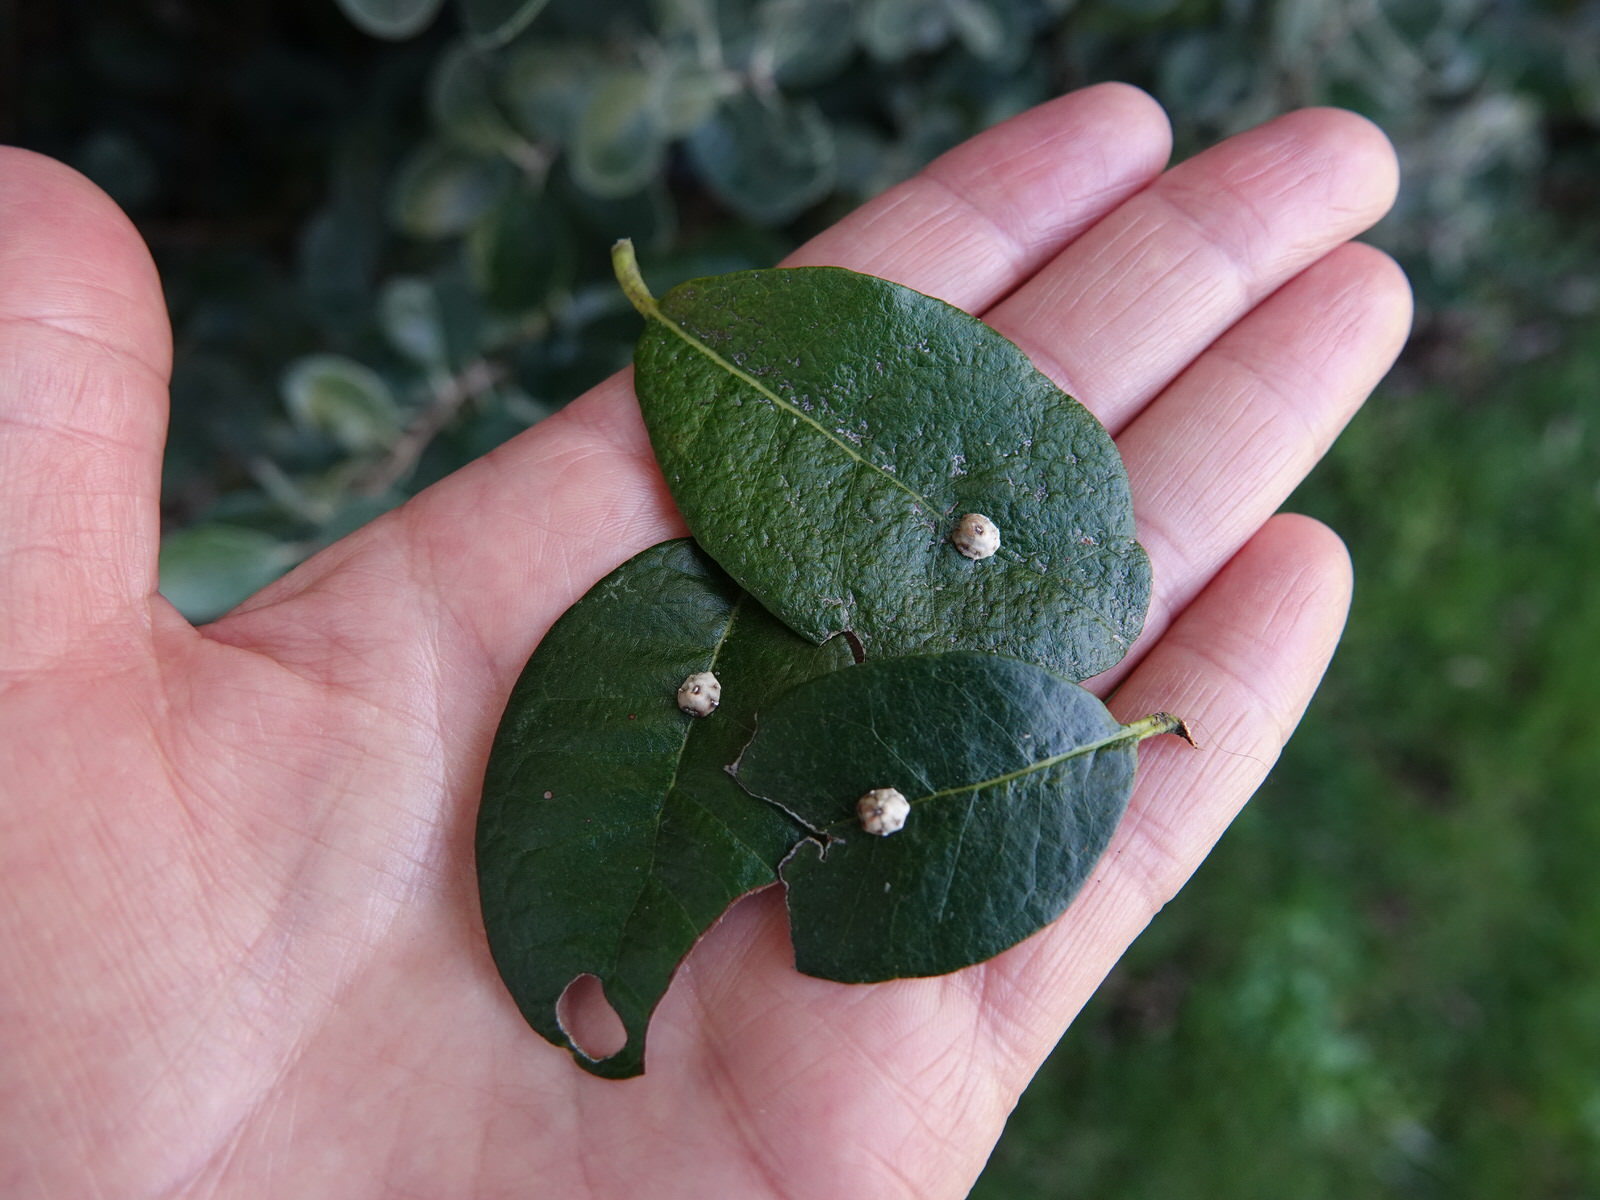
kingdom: Animalia
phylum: Arthropoda
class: Insecta
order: Hemiptera
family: Coccidae
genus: Ceroplastes
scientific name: Ceroplastes sinensis
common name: Hard wax scale
